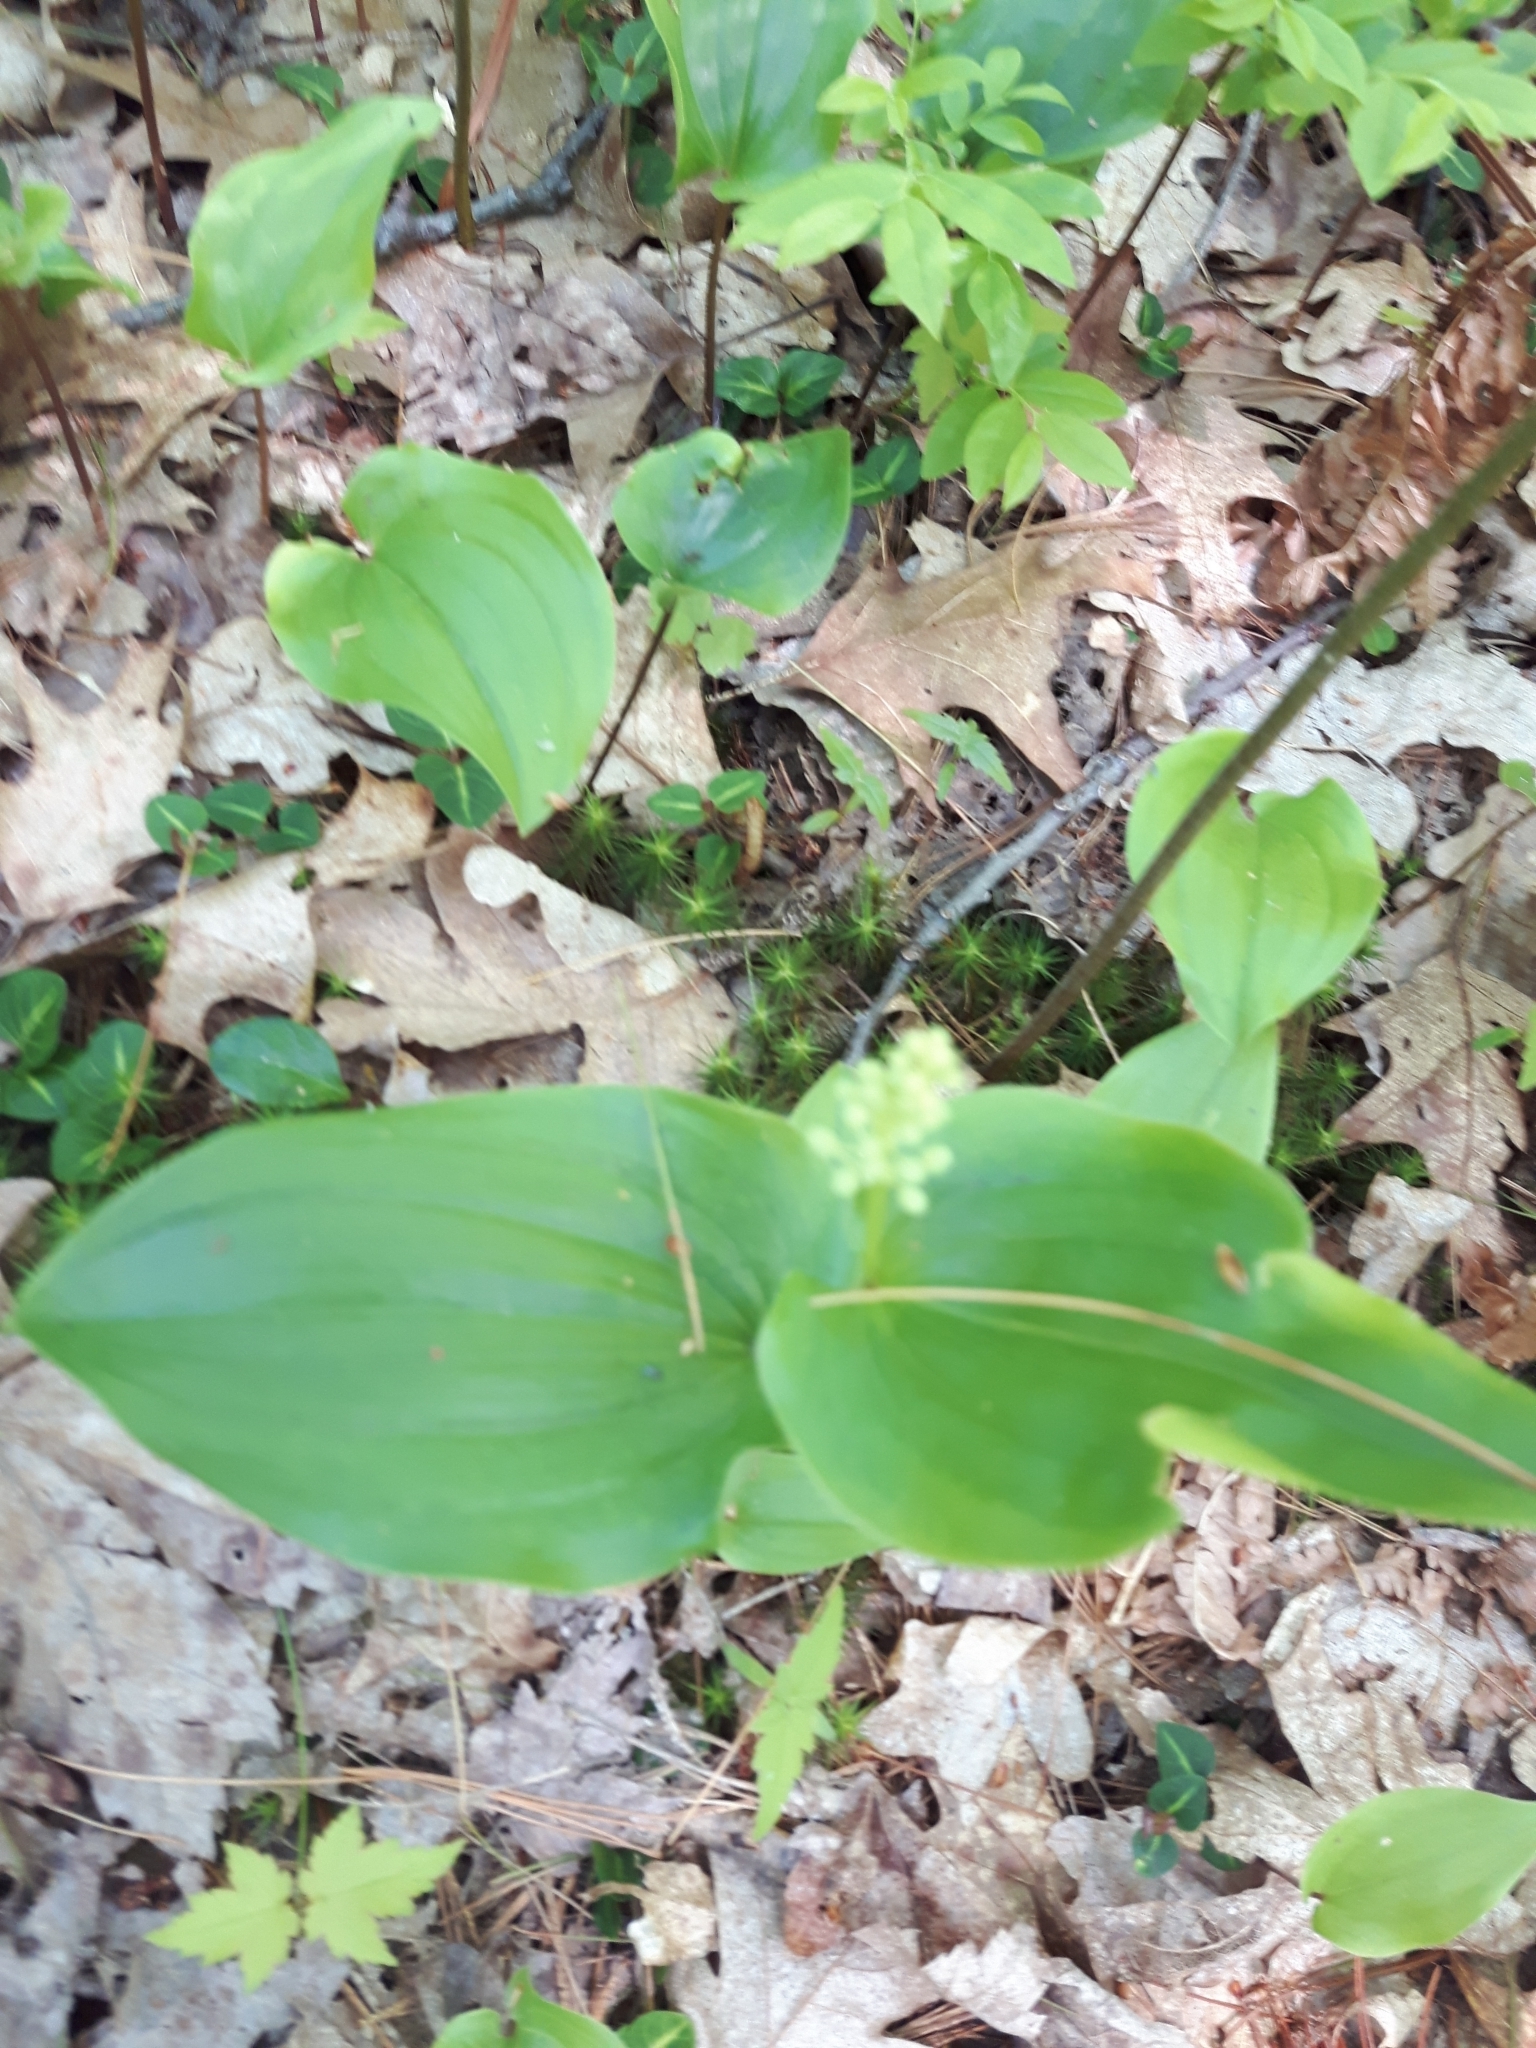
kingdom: Plantae
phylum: Tracheophyta
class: Liliopsida
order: Asparagales
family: Asparagaceae
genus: Maianthemum
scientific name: Maianthemum canadense
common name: False lily-of-the-valley
